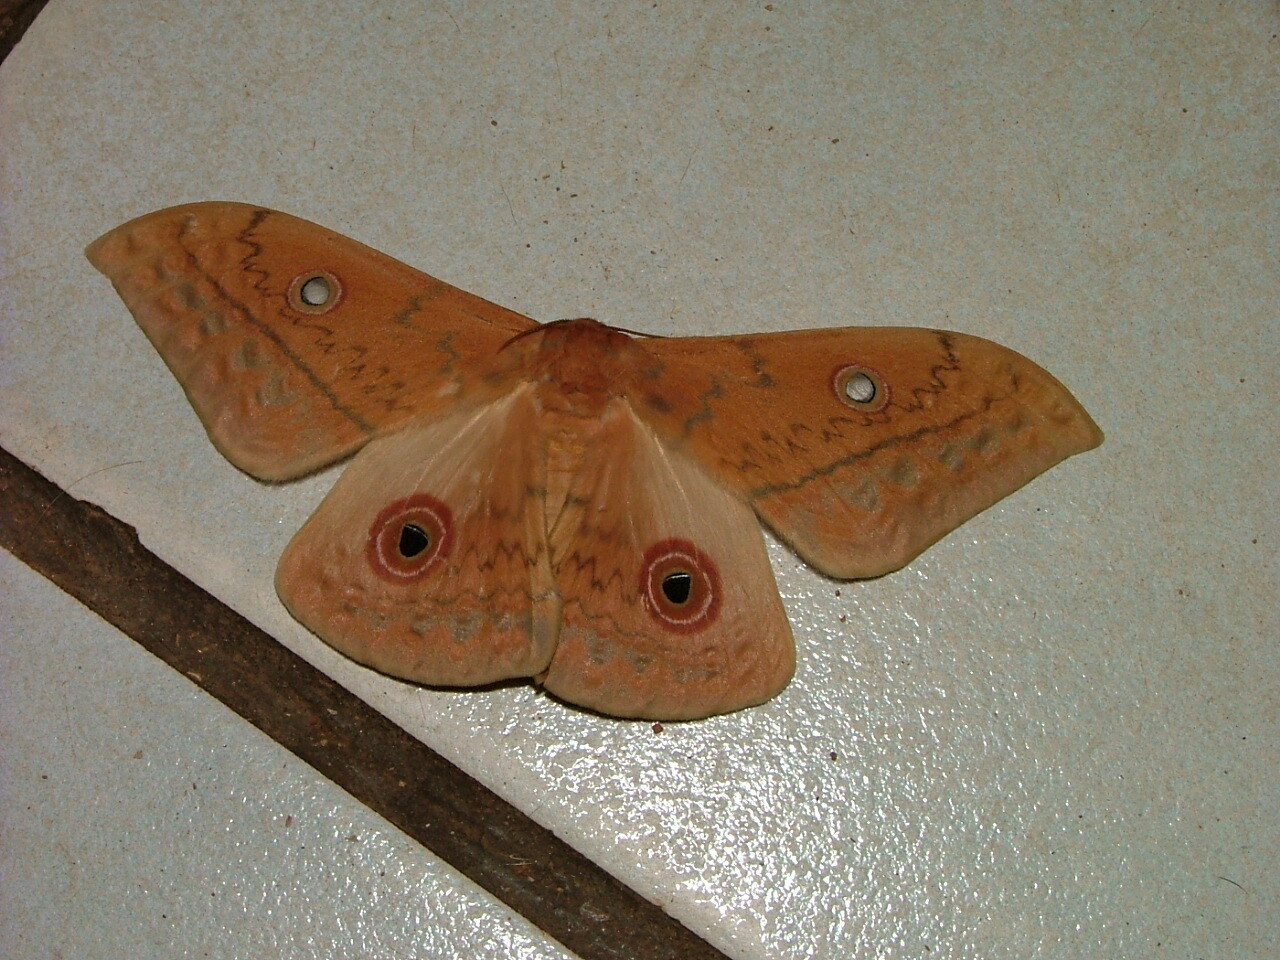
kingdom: Animalia
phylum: Arthropoda
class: Insecta
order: Lepidoptera
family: Saturniidae
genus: Aurivillius
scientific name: Aurivillius fusca
